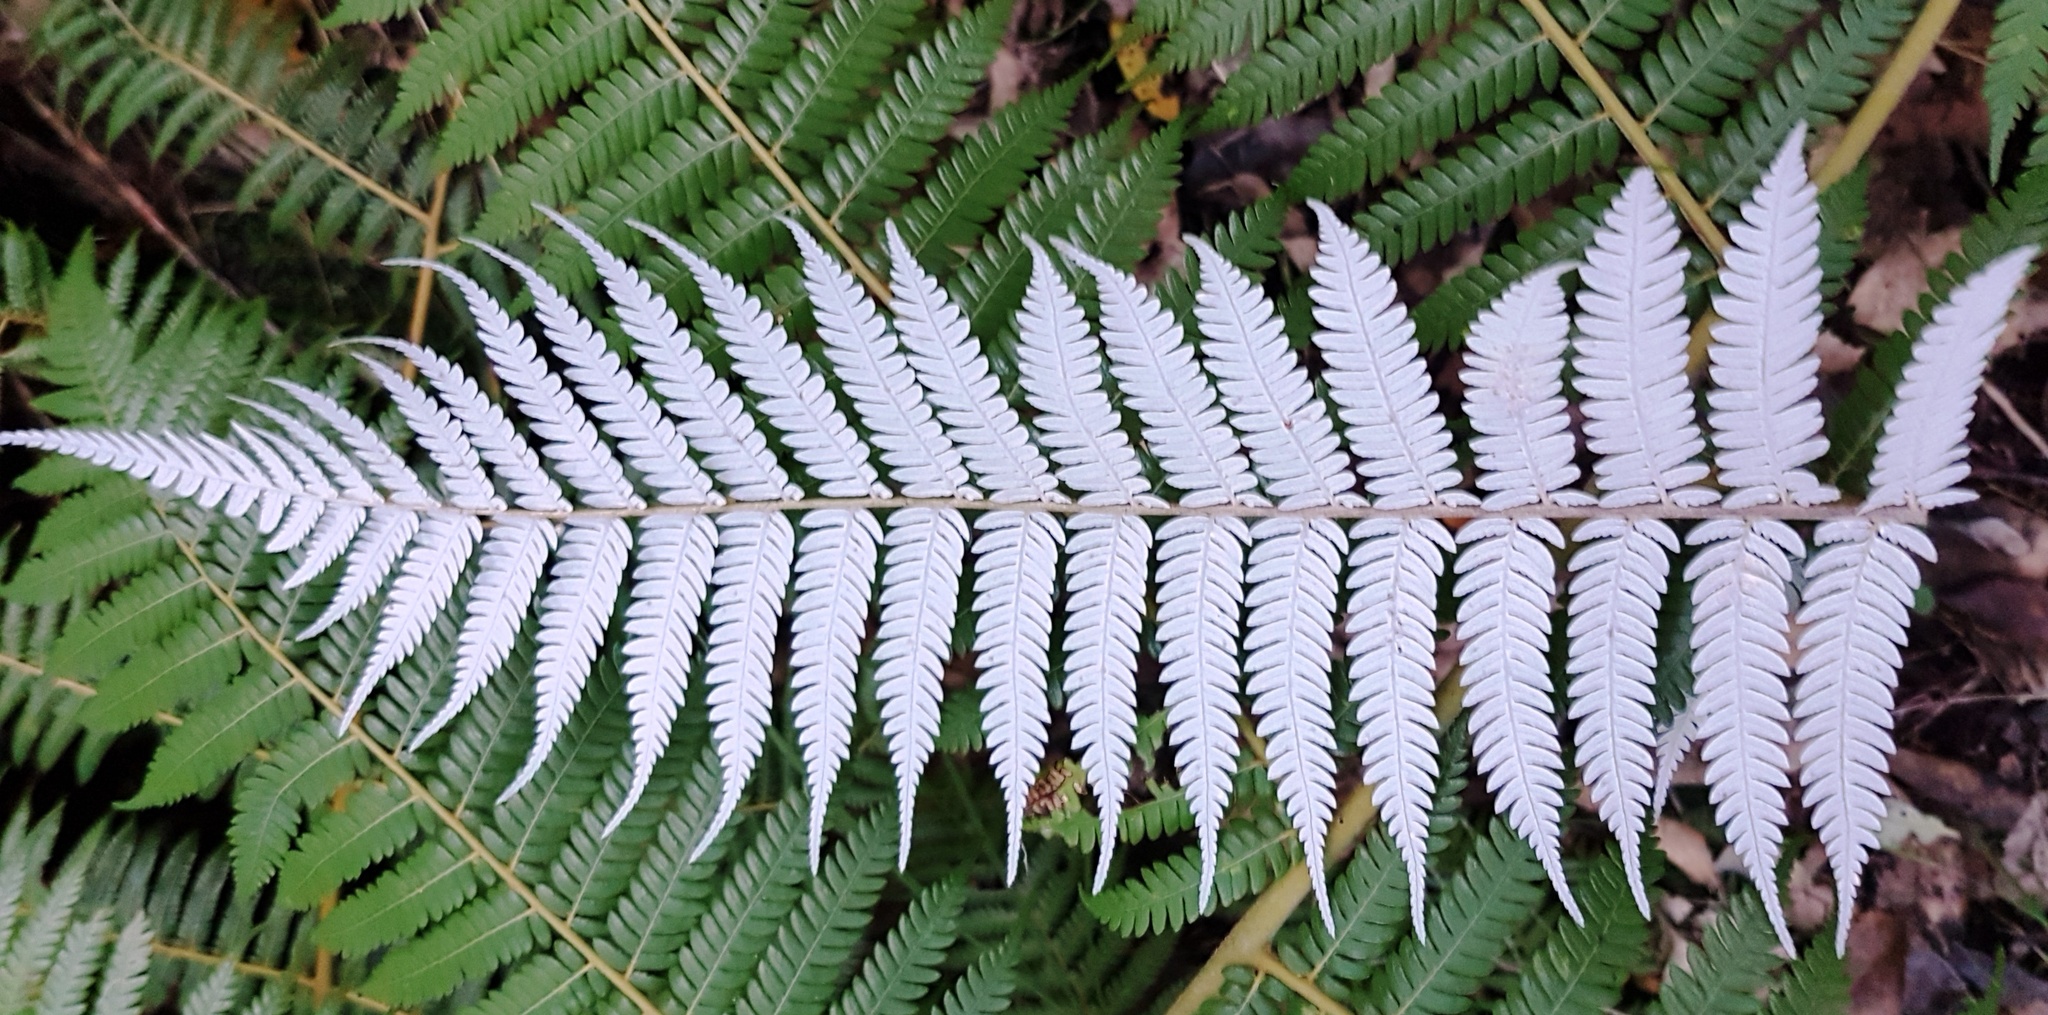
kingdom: Plantae
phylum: Tracheophyta
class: Polypodiopsida
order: Cyatheales
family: Cyatheaceae
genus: Alsophila
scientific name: Alsophila dealbata
